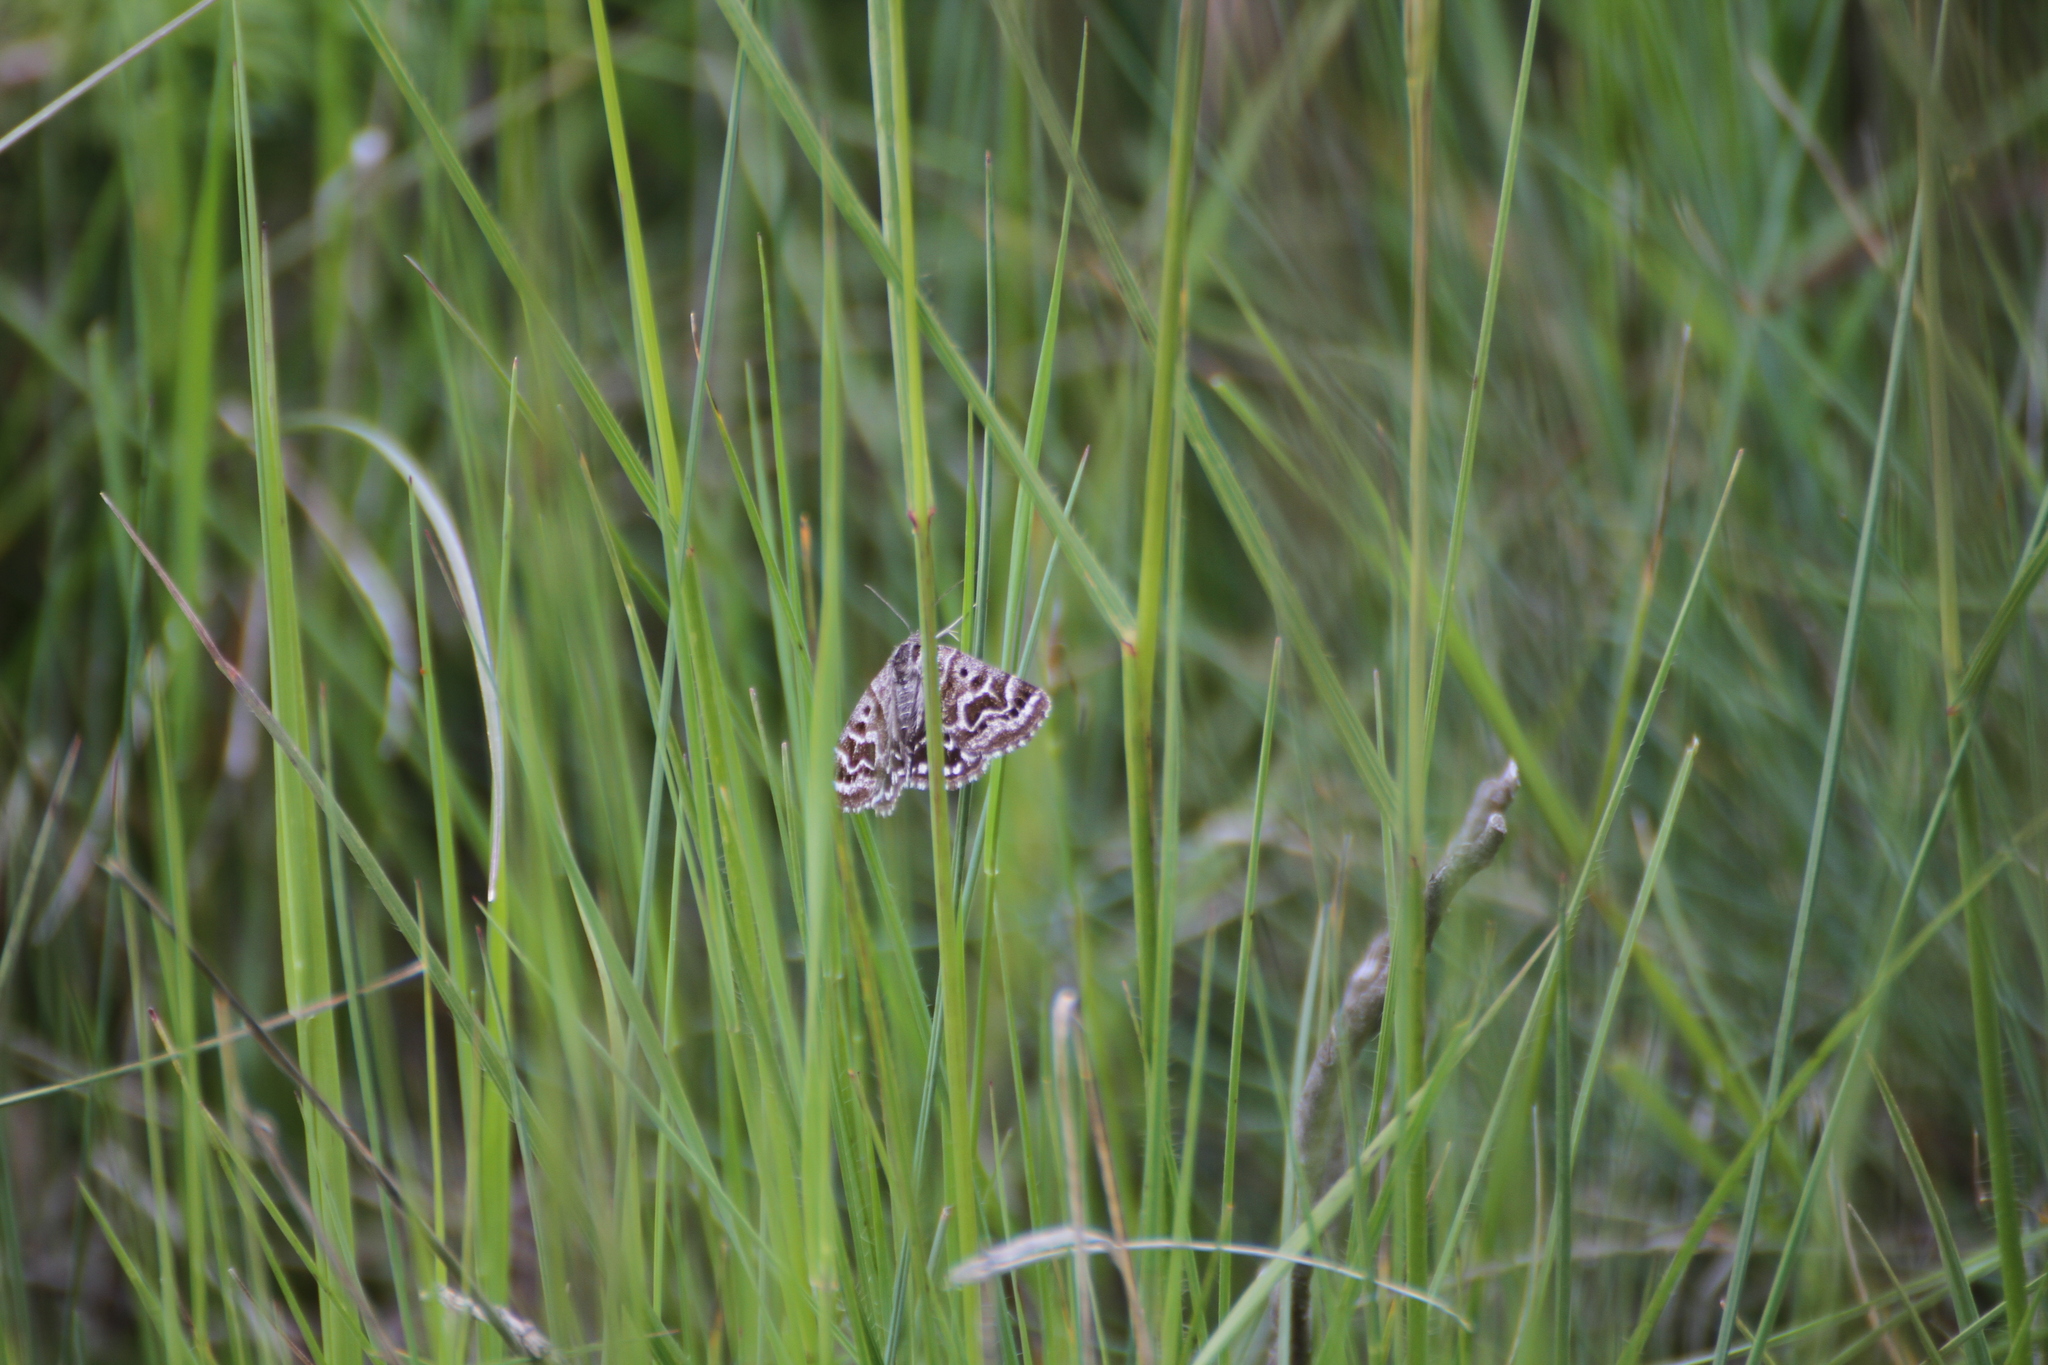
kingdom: Animalia
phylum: Arthropoda
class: Insecta
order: Lepidoptera
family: Erebidae
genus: Callistege
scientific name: Callistege mi
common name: Mother shipton
